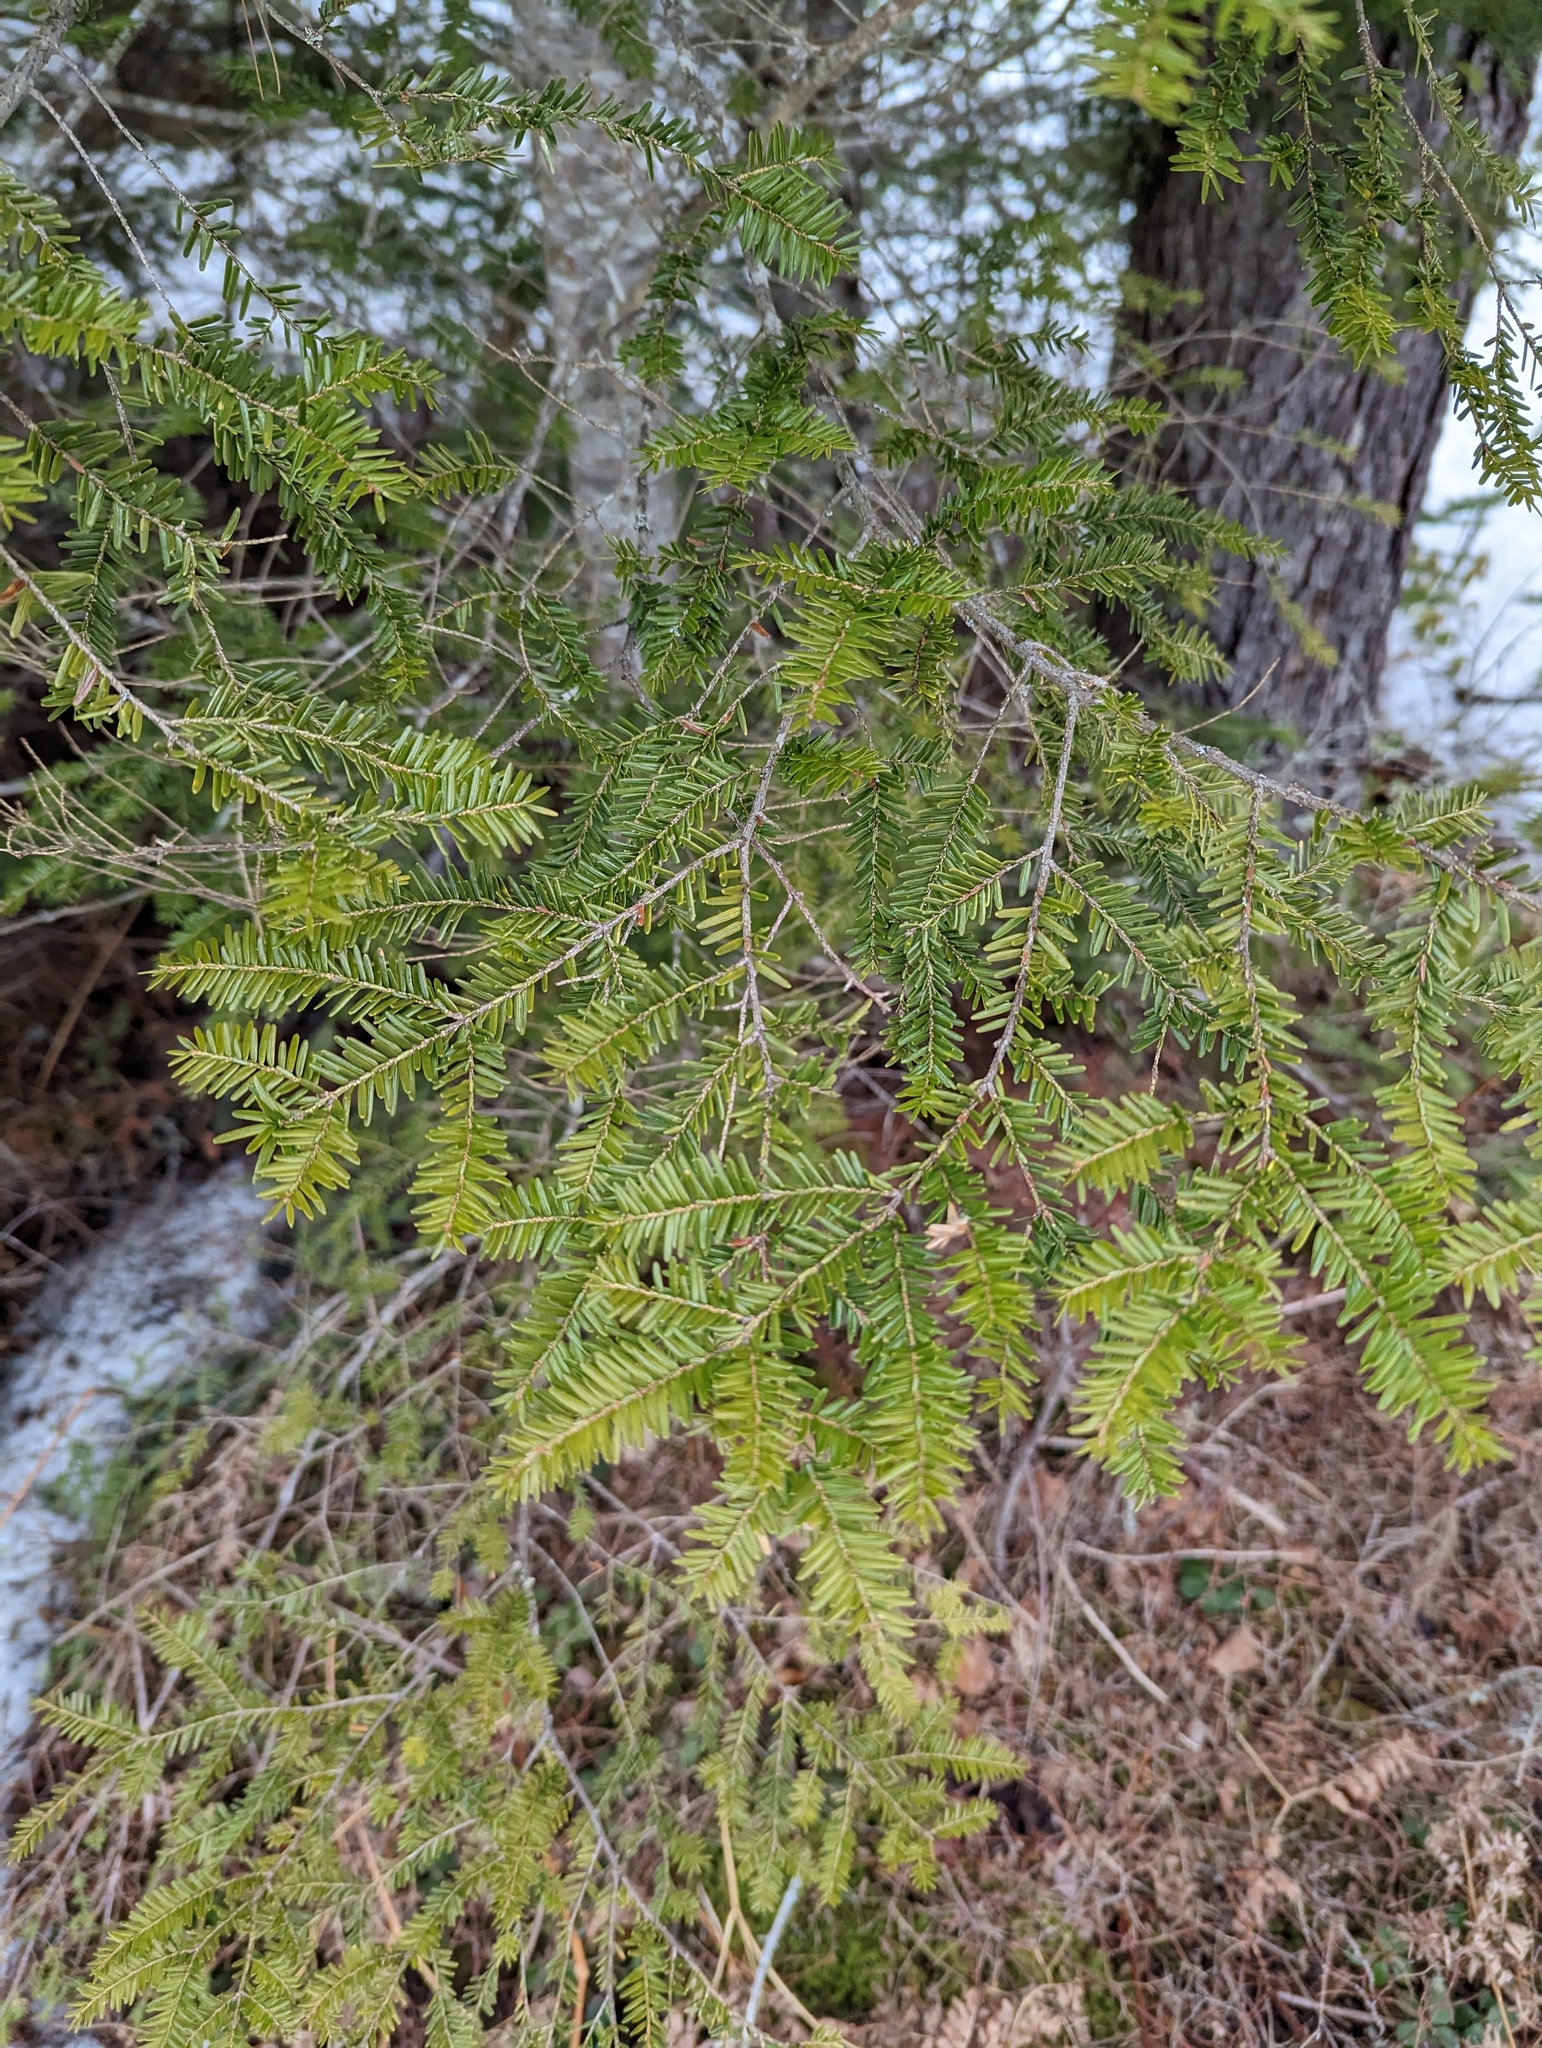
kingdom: Plantae
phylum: Tracheophyta
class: Pinopsida
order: Pinales
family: Pinaceae
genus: Tsuga
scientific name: Tsuga canadensis
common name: Eastern hemlock
